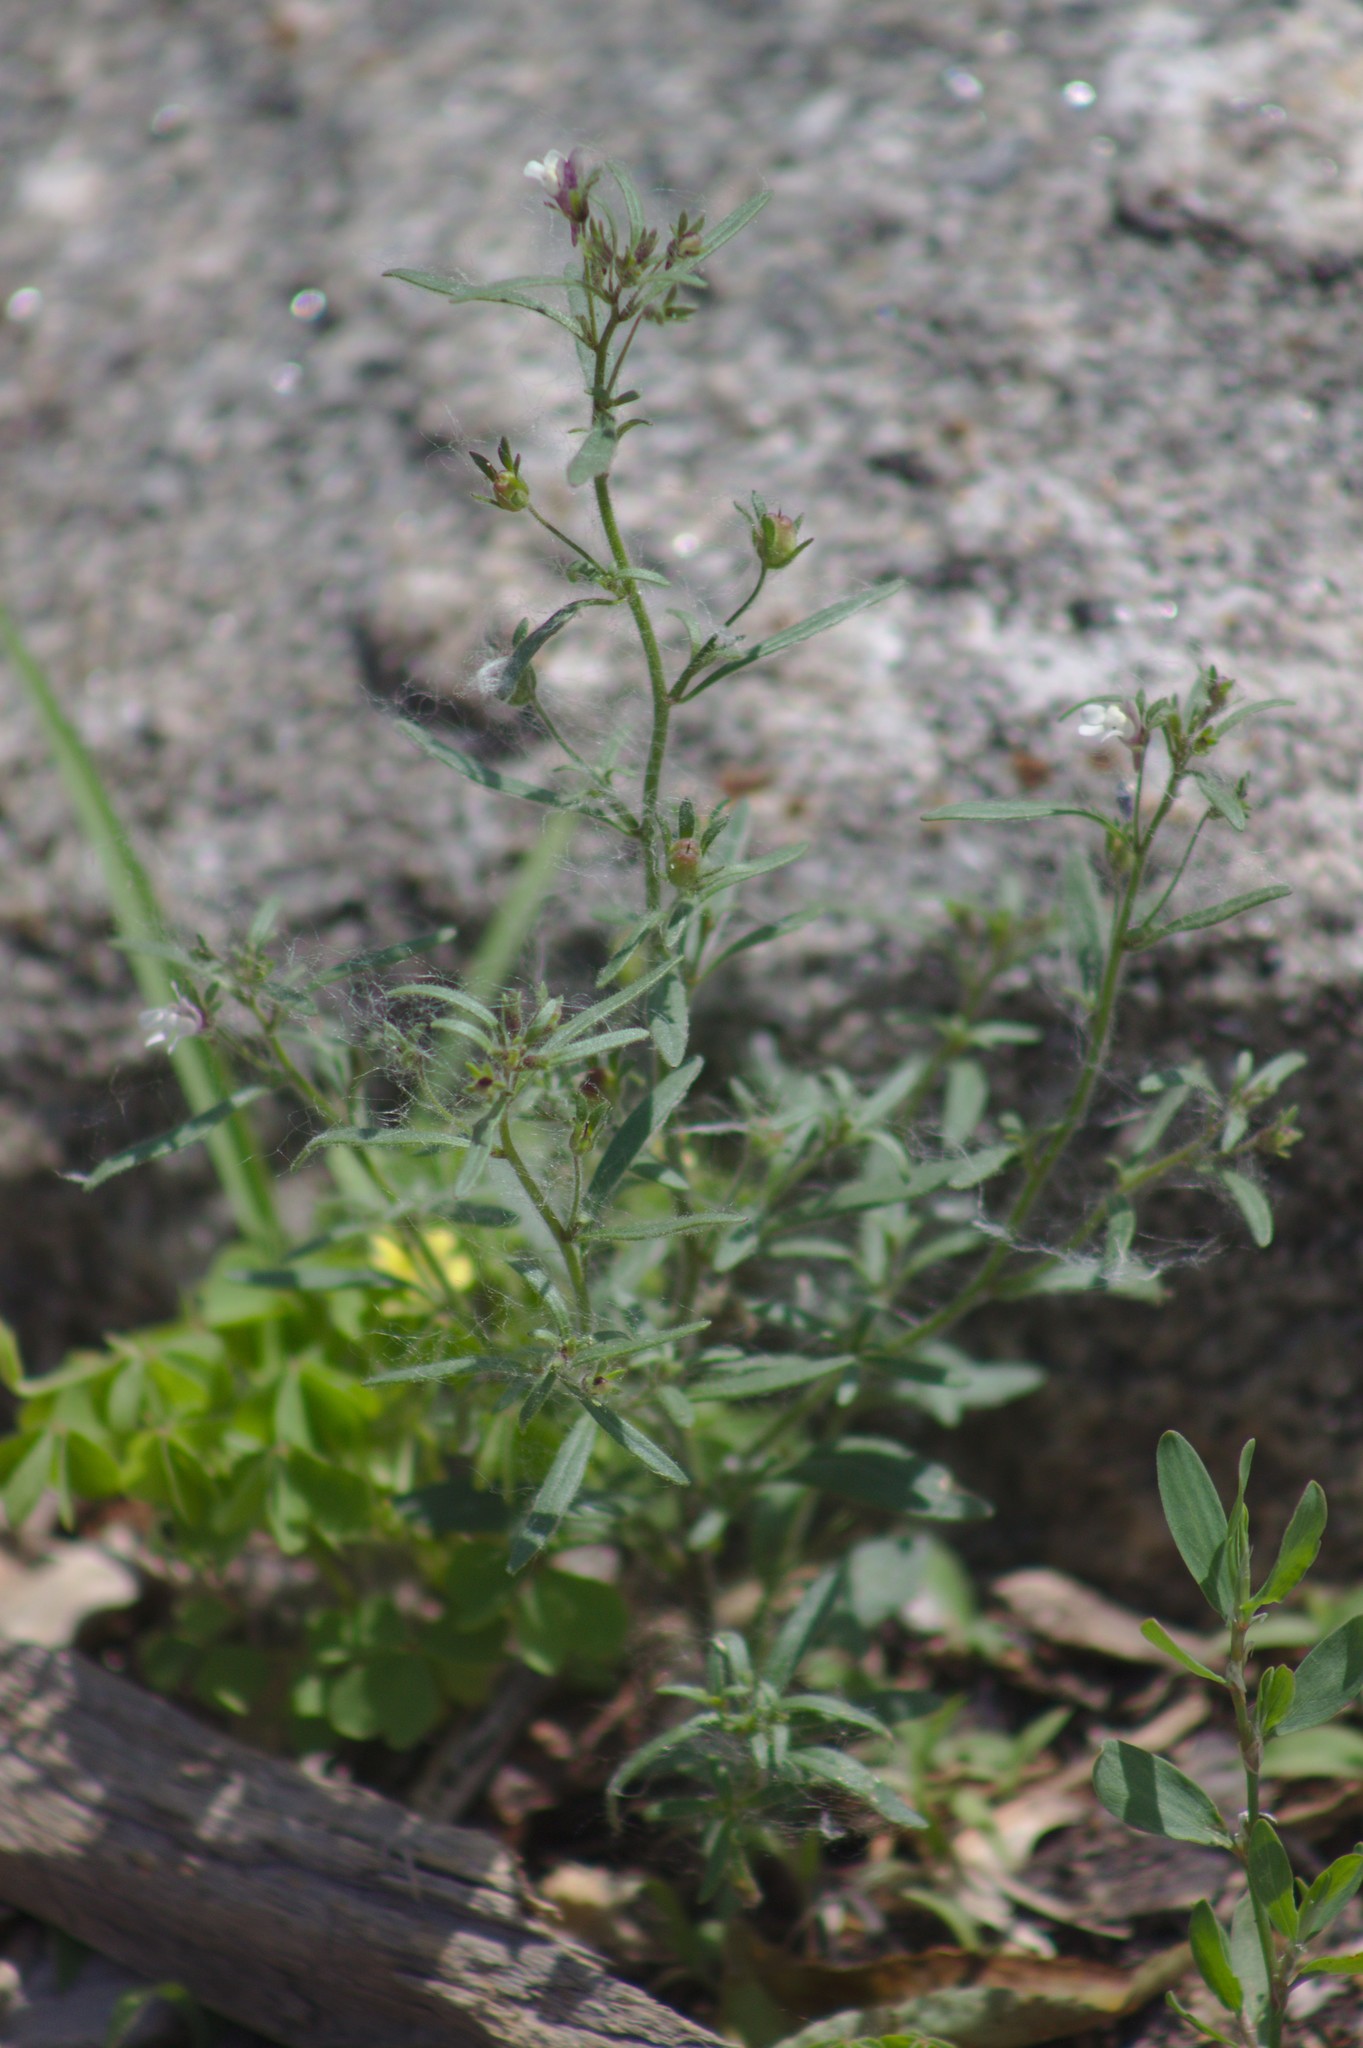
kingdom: Plantae
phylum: Tracheophyta
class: Magnoliopsida
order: Lamiales
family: Plantaginaceae
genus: Chaenorhinum
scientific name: Chaenorhinum minus
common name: Dwarf snapdragon
